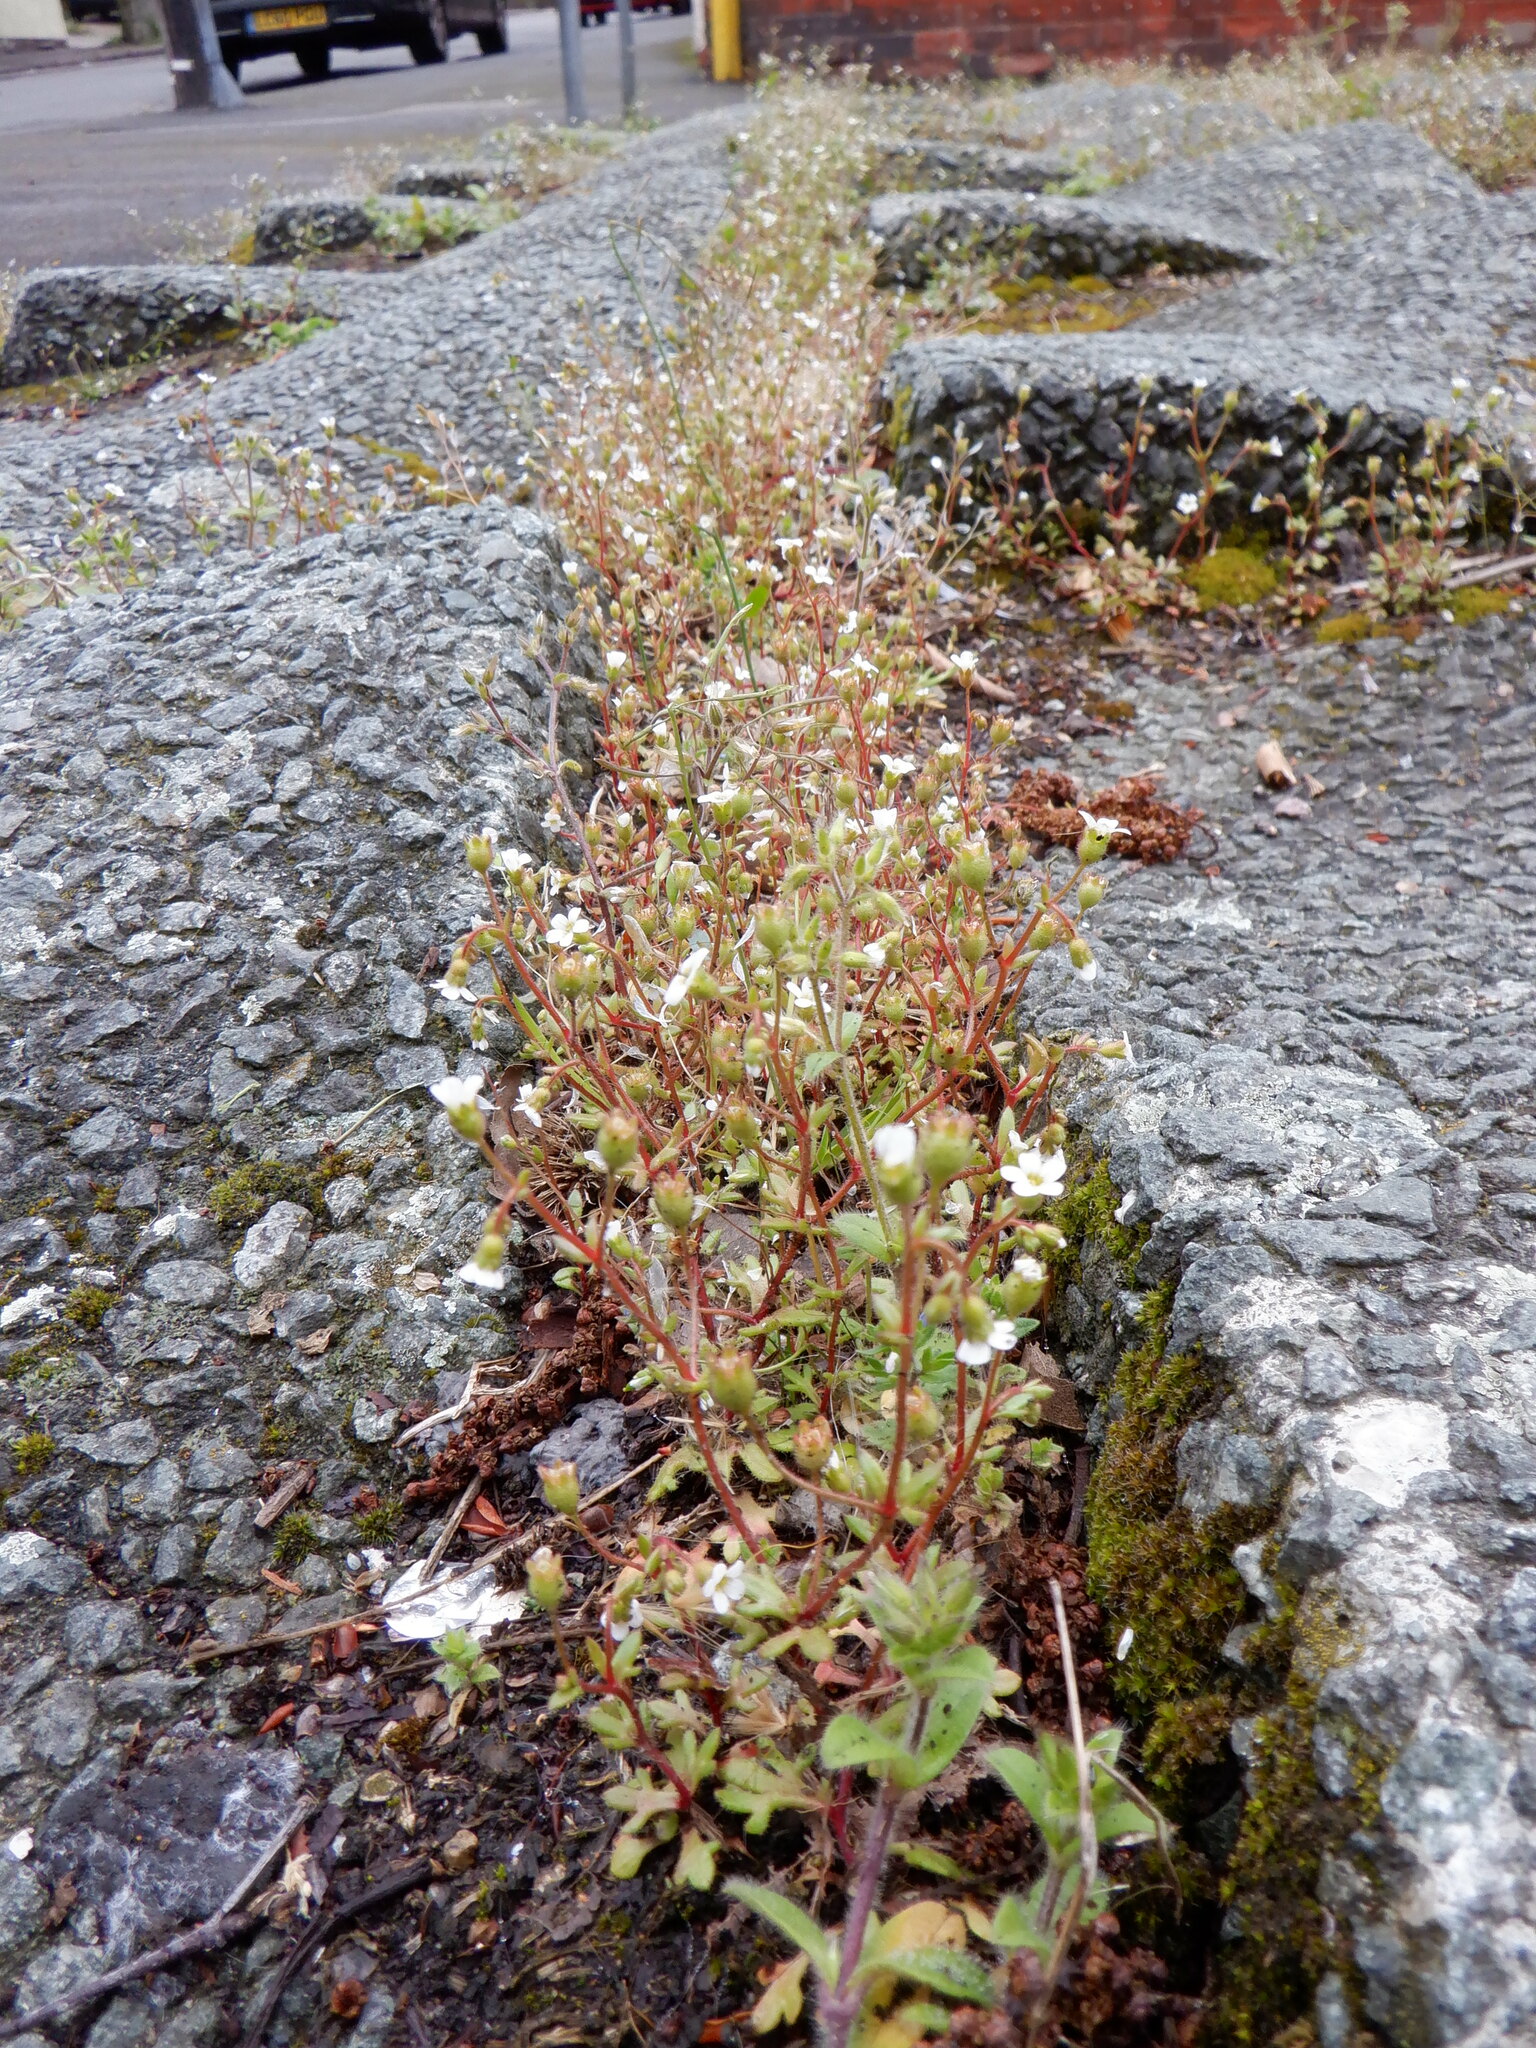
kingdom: Plantae
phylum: Tracheophyta
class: Magnoliopsida
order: Saxifragales
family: Saxifragaceae
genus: Saxifraga
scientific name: Saxifraga tridactylites
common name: Rue-leaved saxifrage
